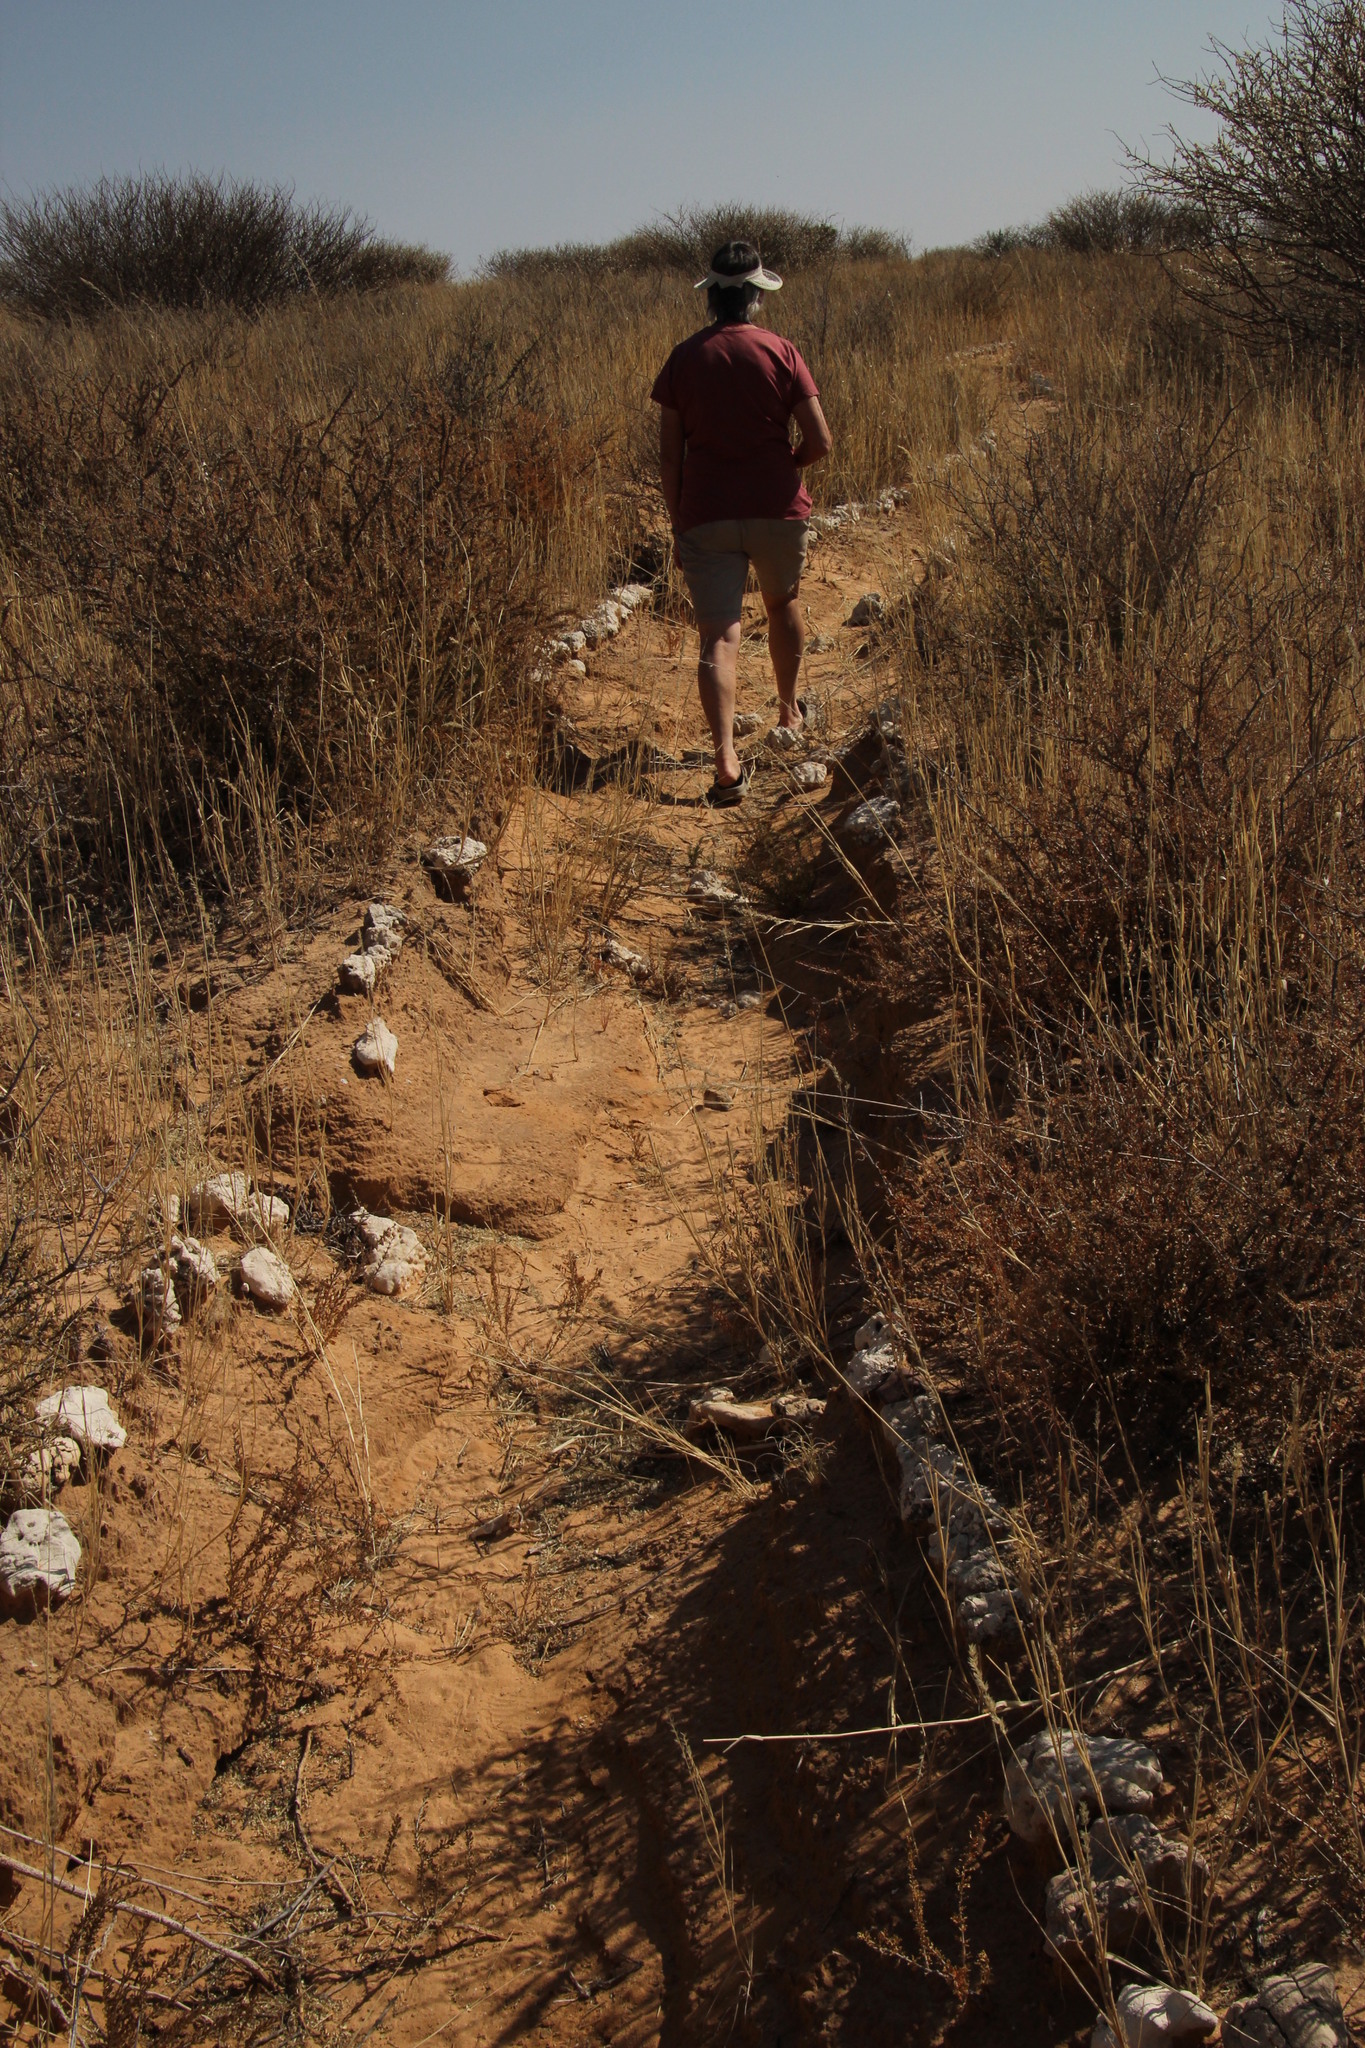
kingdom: Plantae
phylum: Tracheophyta
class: Magnoliopsida
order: Lamiales
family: Bignoniaceae
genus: Rhigozum
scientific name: Rhigozum trichotomum
